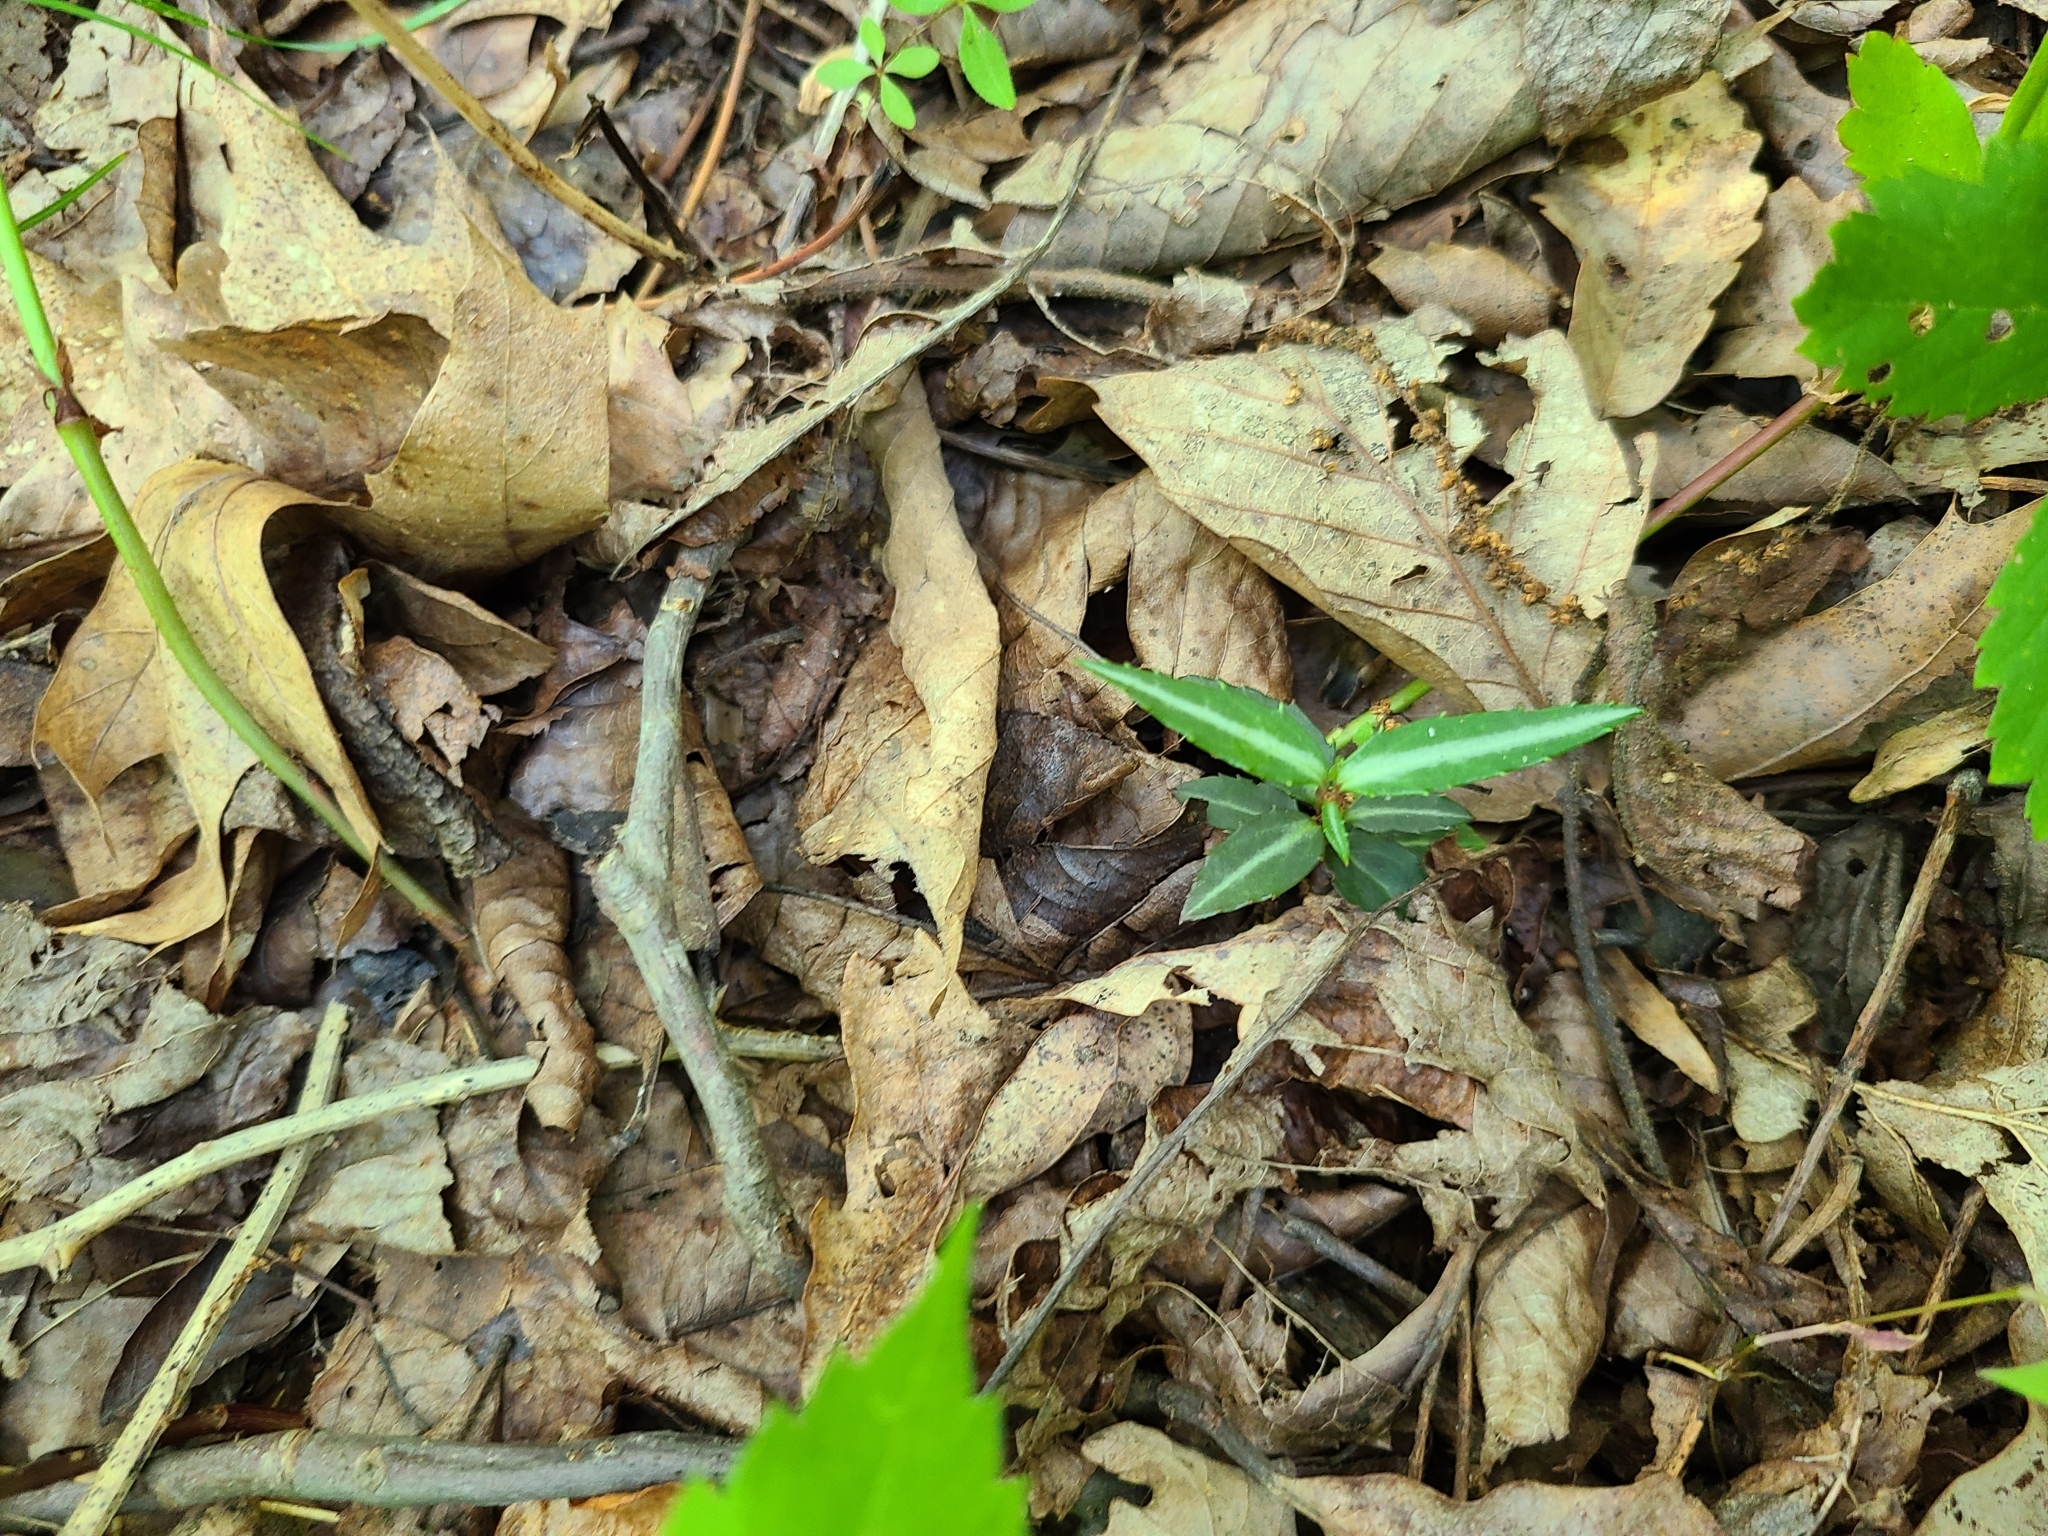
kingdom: Plantae
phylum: Tracheophyta
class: Magnoliopsida
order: Ericales
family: Ericaceae
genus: Chimaphila
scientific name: Chimaphila maculata
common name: Spotted pipsissewa
